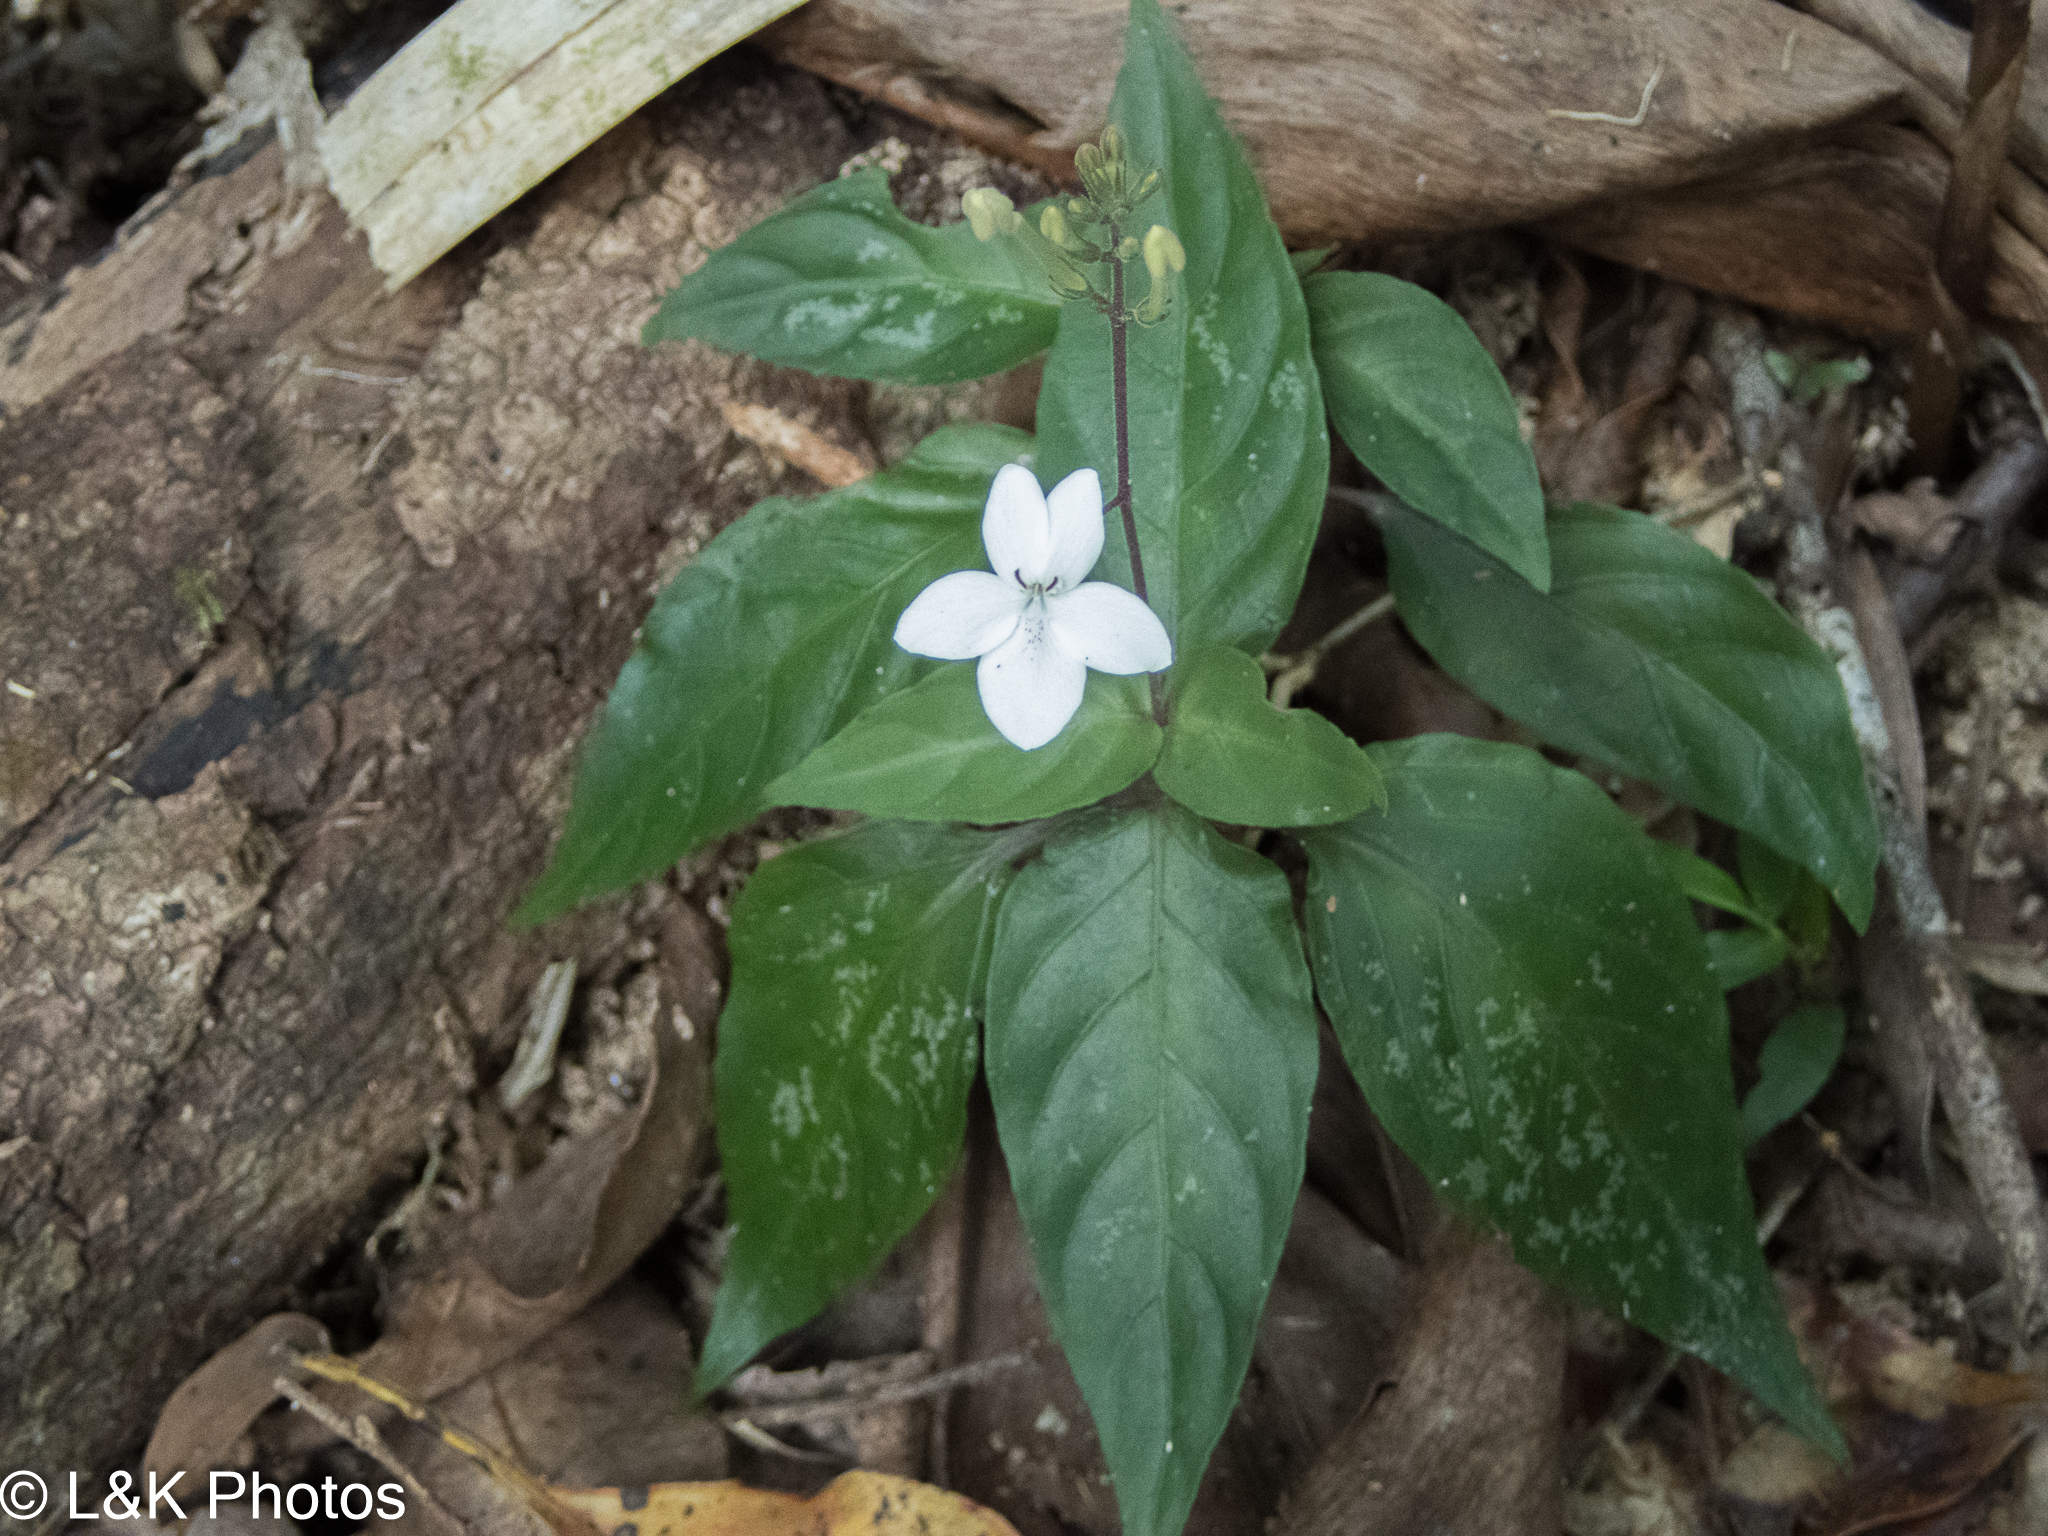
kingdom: Plantae
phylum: Tracheophyta
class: Magnoliopsida
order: Lamiales
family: Acanthaceae
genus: Pseuderanthemum
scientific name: Pseuderanthemum variabile
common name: Night and afternoon
